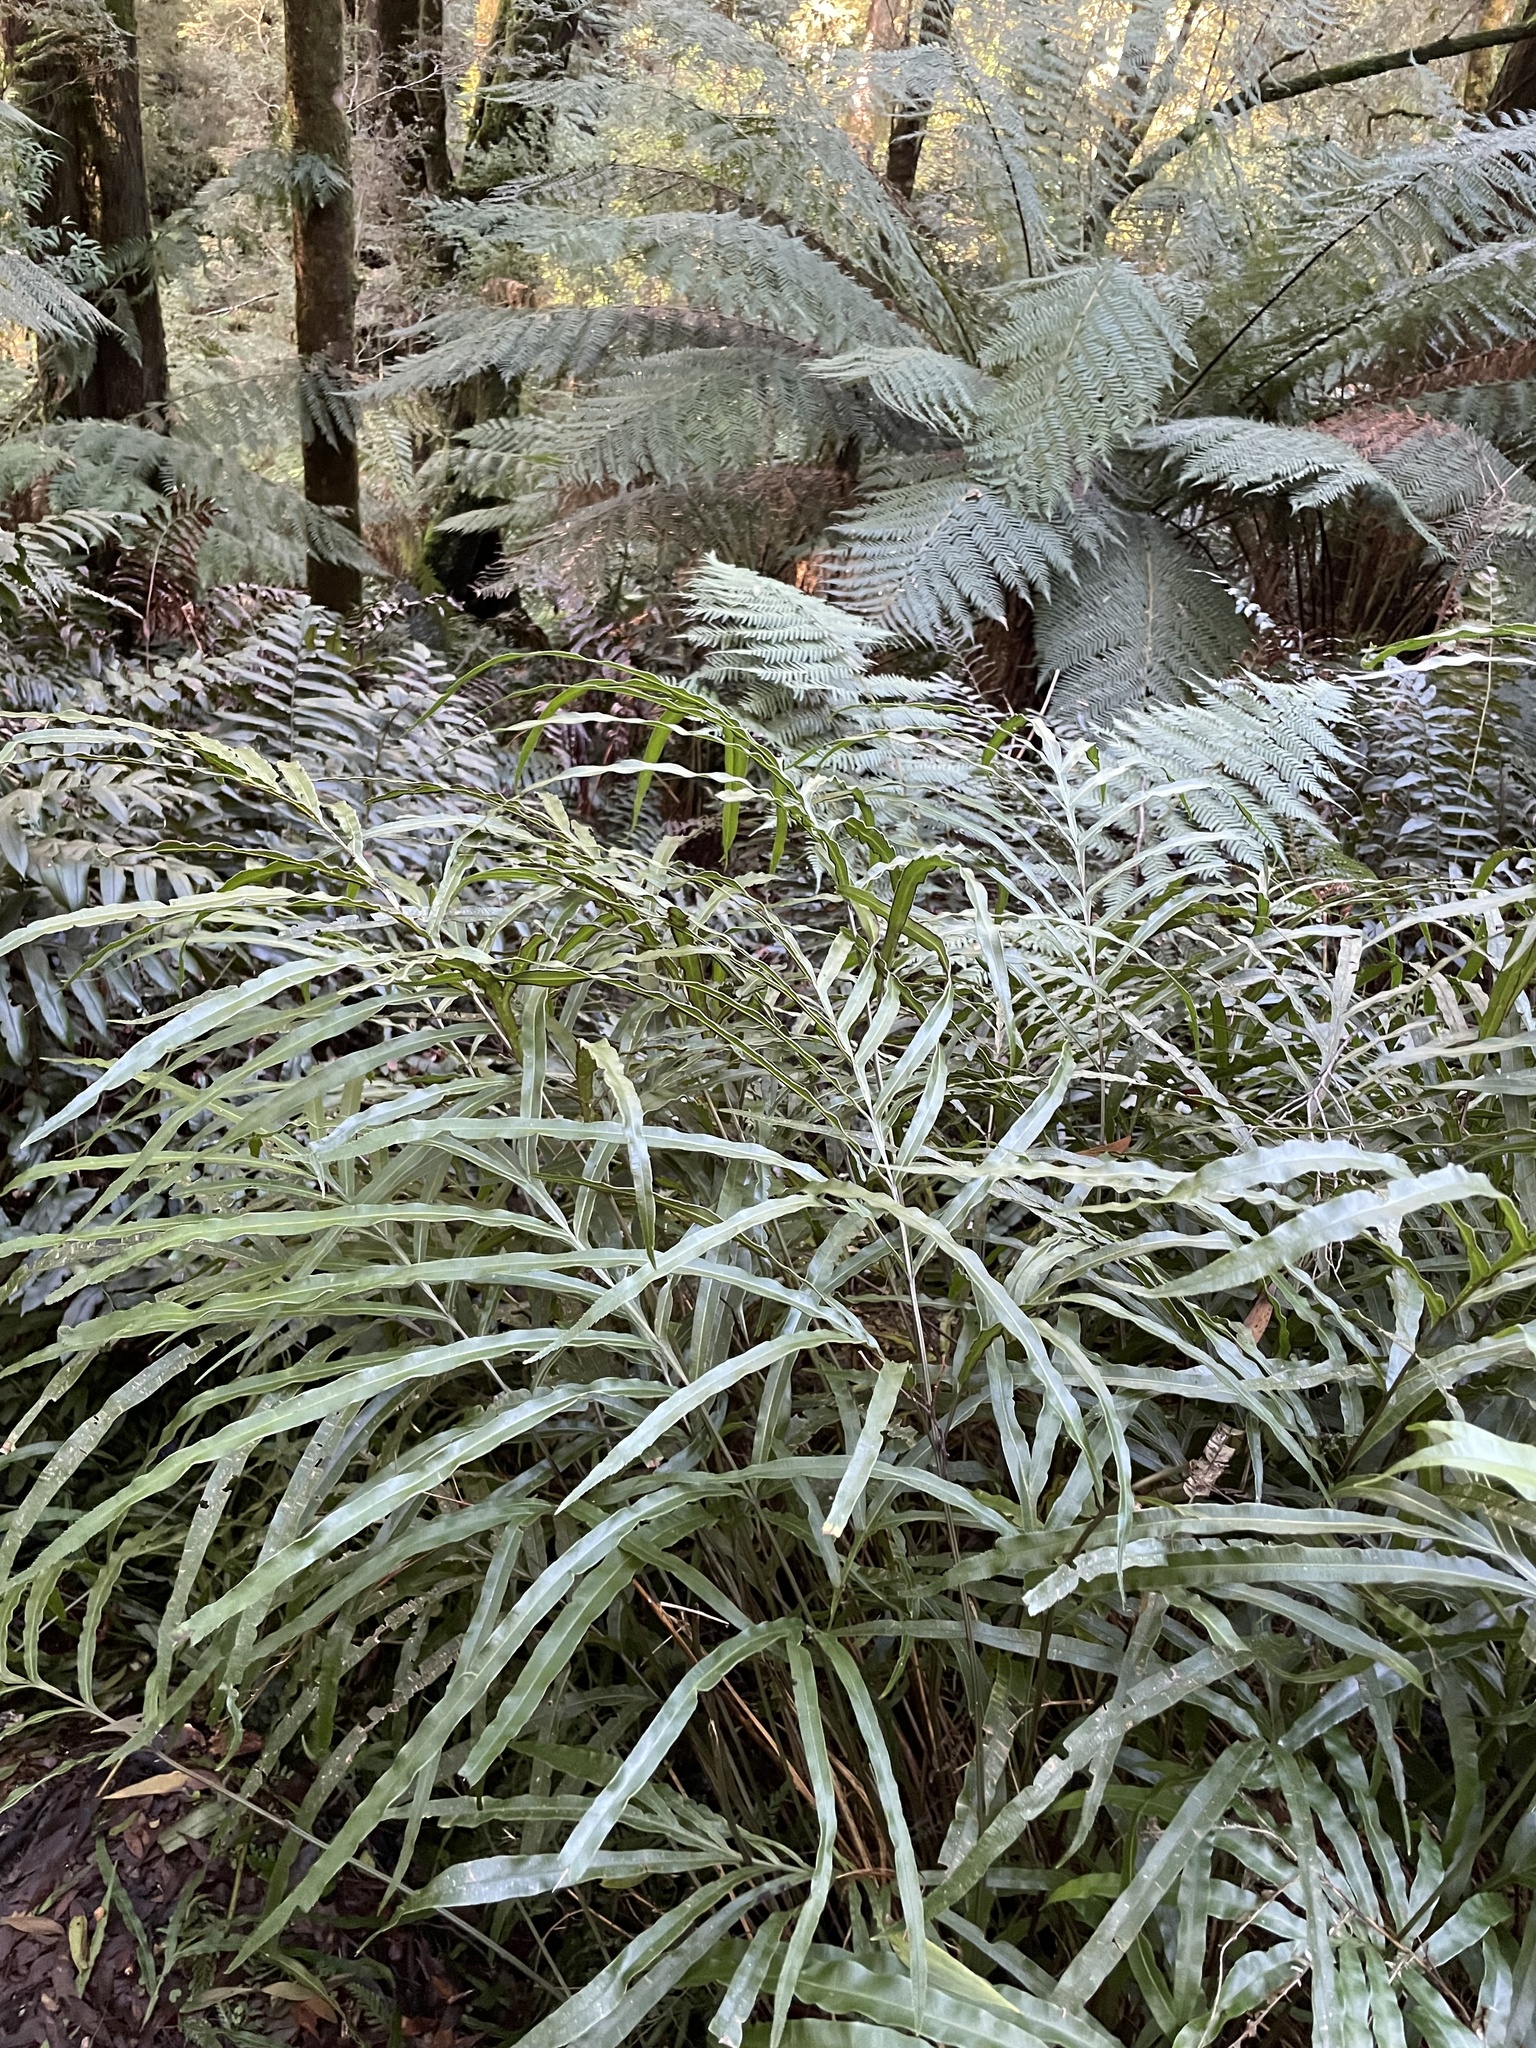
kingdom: Plantae
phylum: Tracheophyta
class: Polypodiopsida
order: Polypodiales
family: Pteridaceae
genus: Pteris
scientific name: Pteris umbrosa
